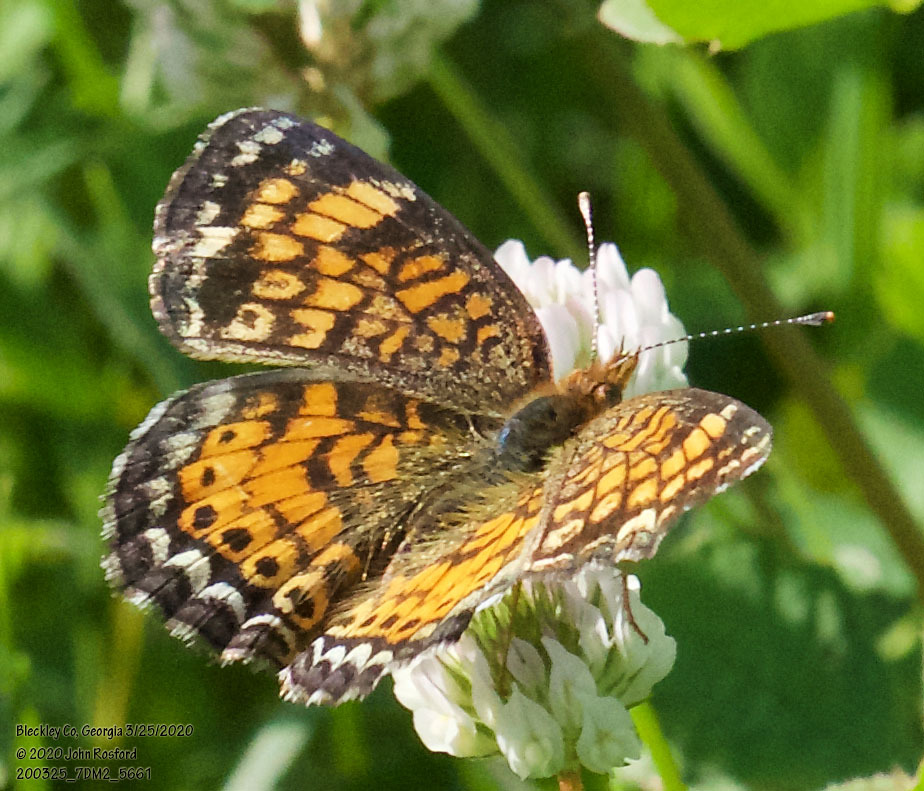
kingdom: Animalia
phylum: Arthropoda
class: Insecta
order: Lepidoptera
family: Nymphalidae
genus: Phyciodes
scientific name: Phyciodes tharos
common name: Pearl crescent
